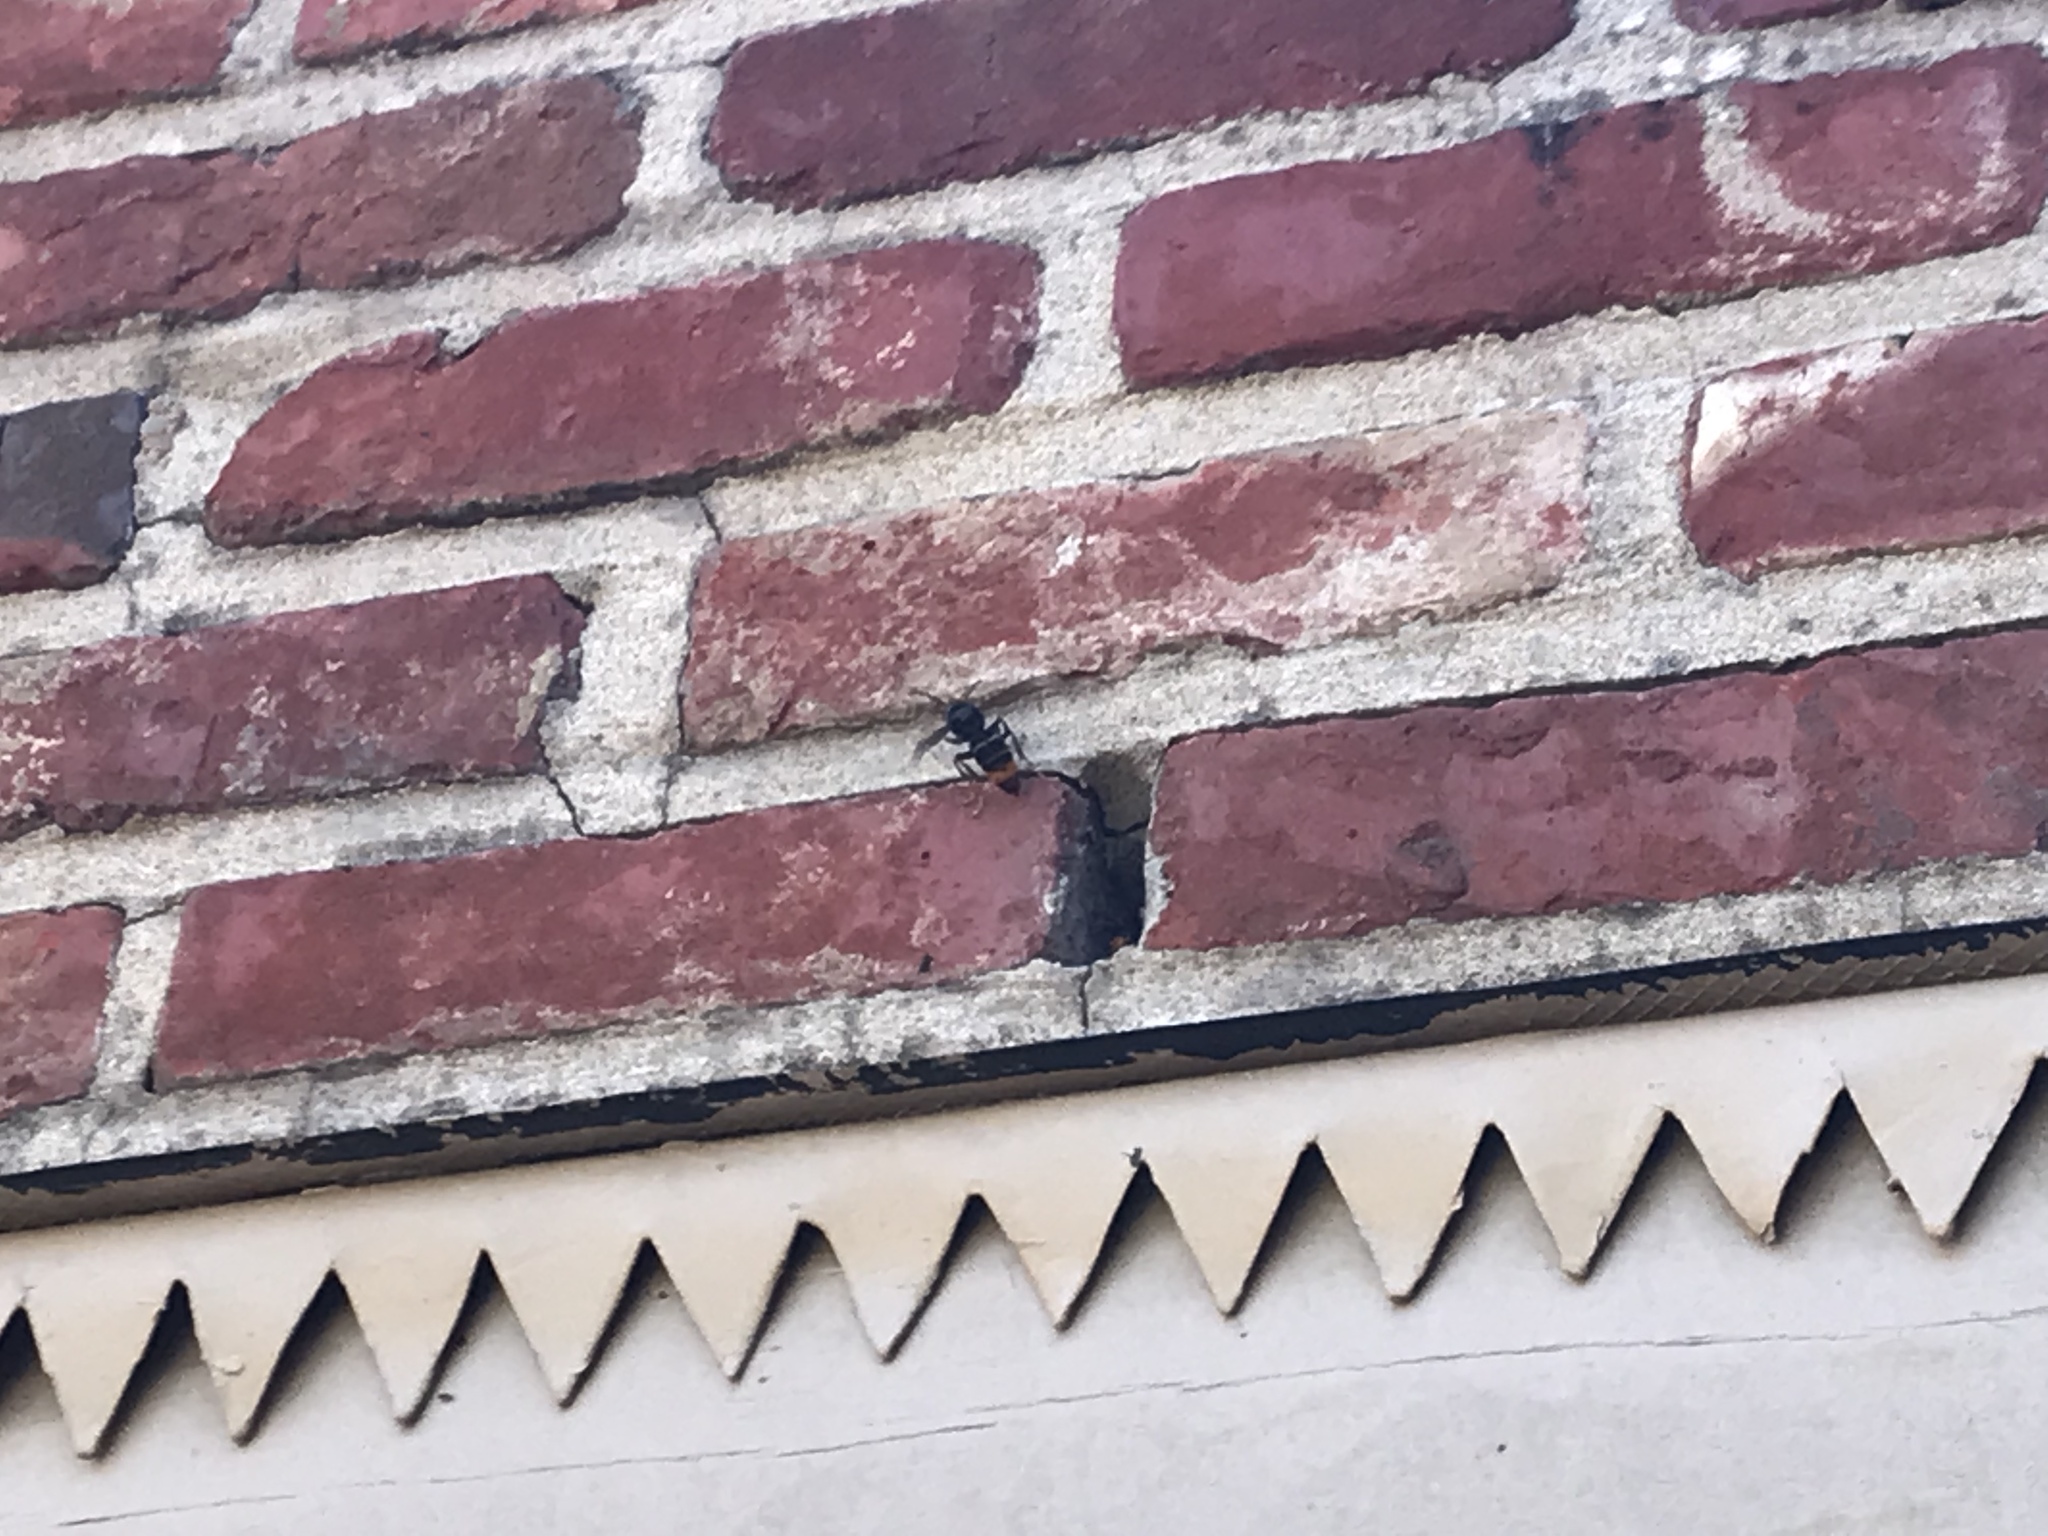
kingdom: Animalia
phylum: Arthropoda
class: Insecta
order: Hymenoptera
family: Vespidae
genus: Vespa
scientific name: Vespa velutina
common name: Asian hornet
